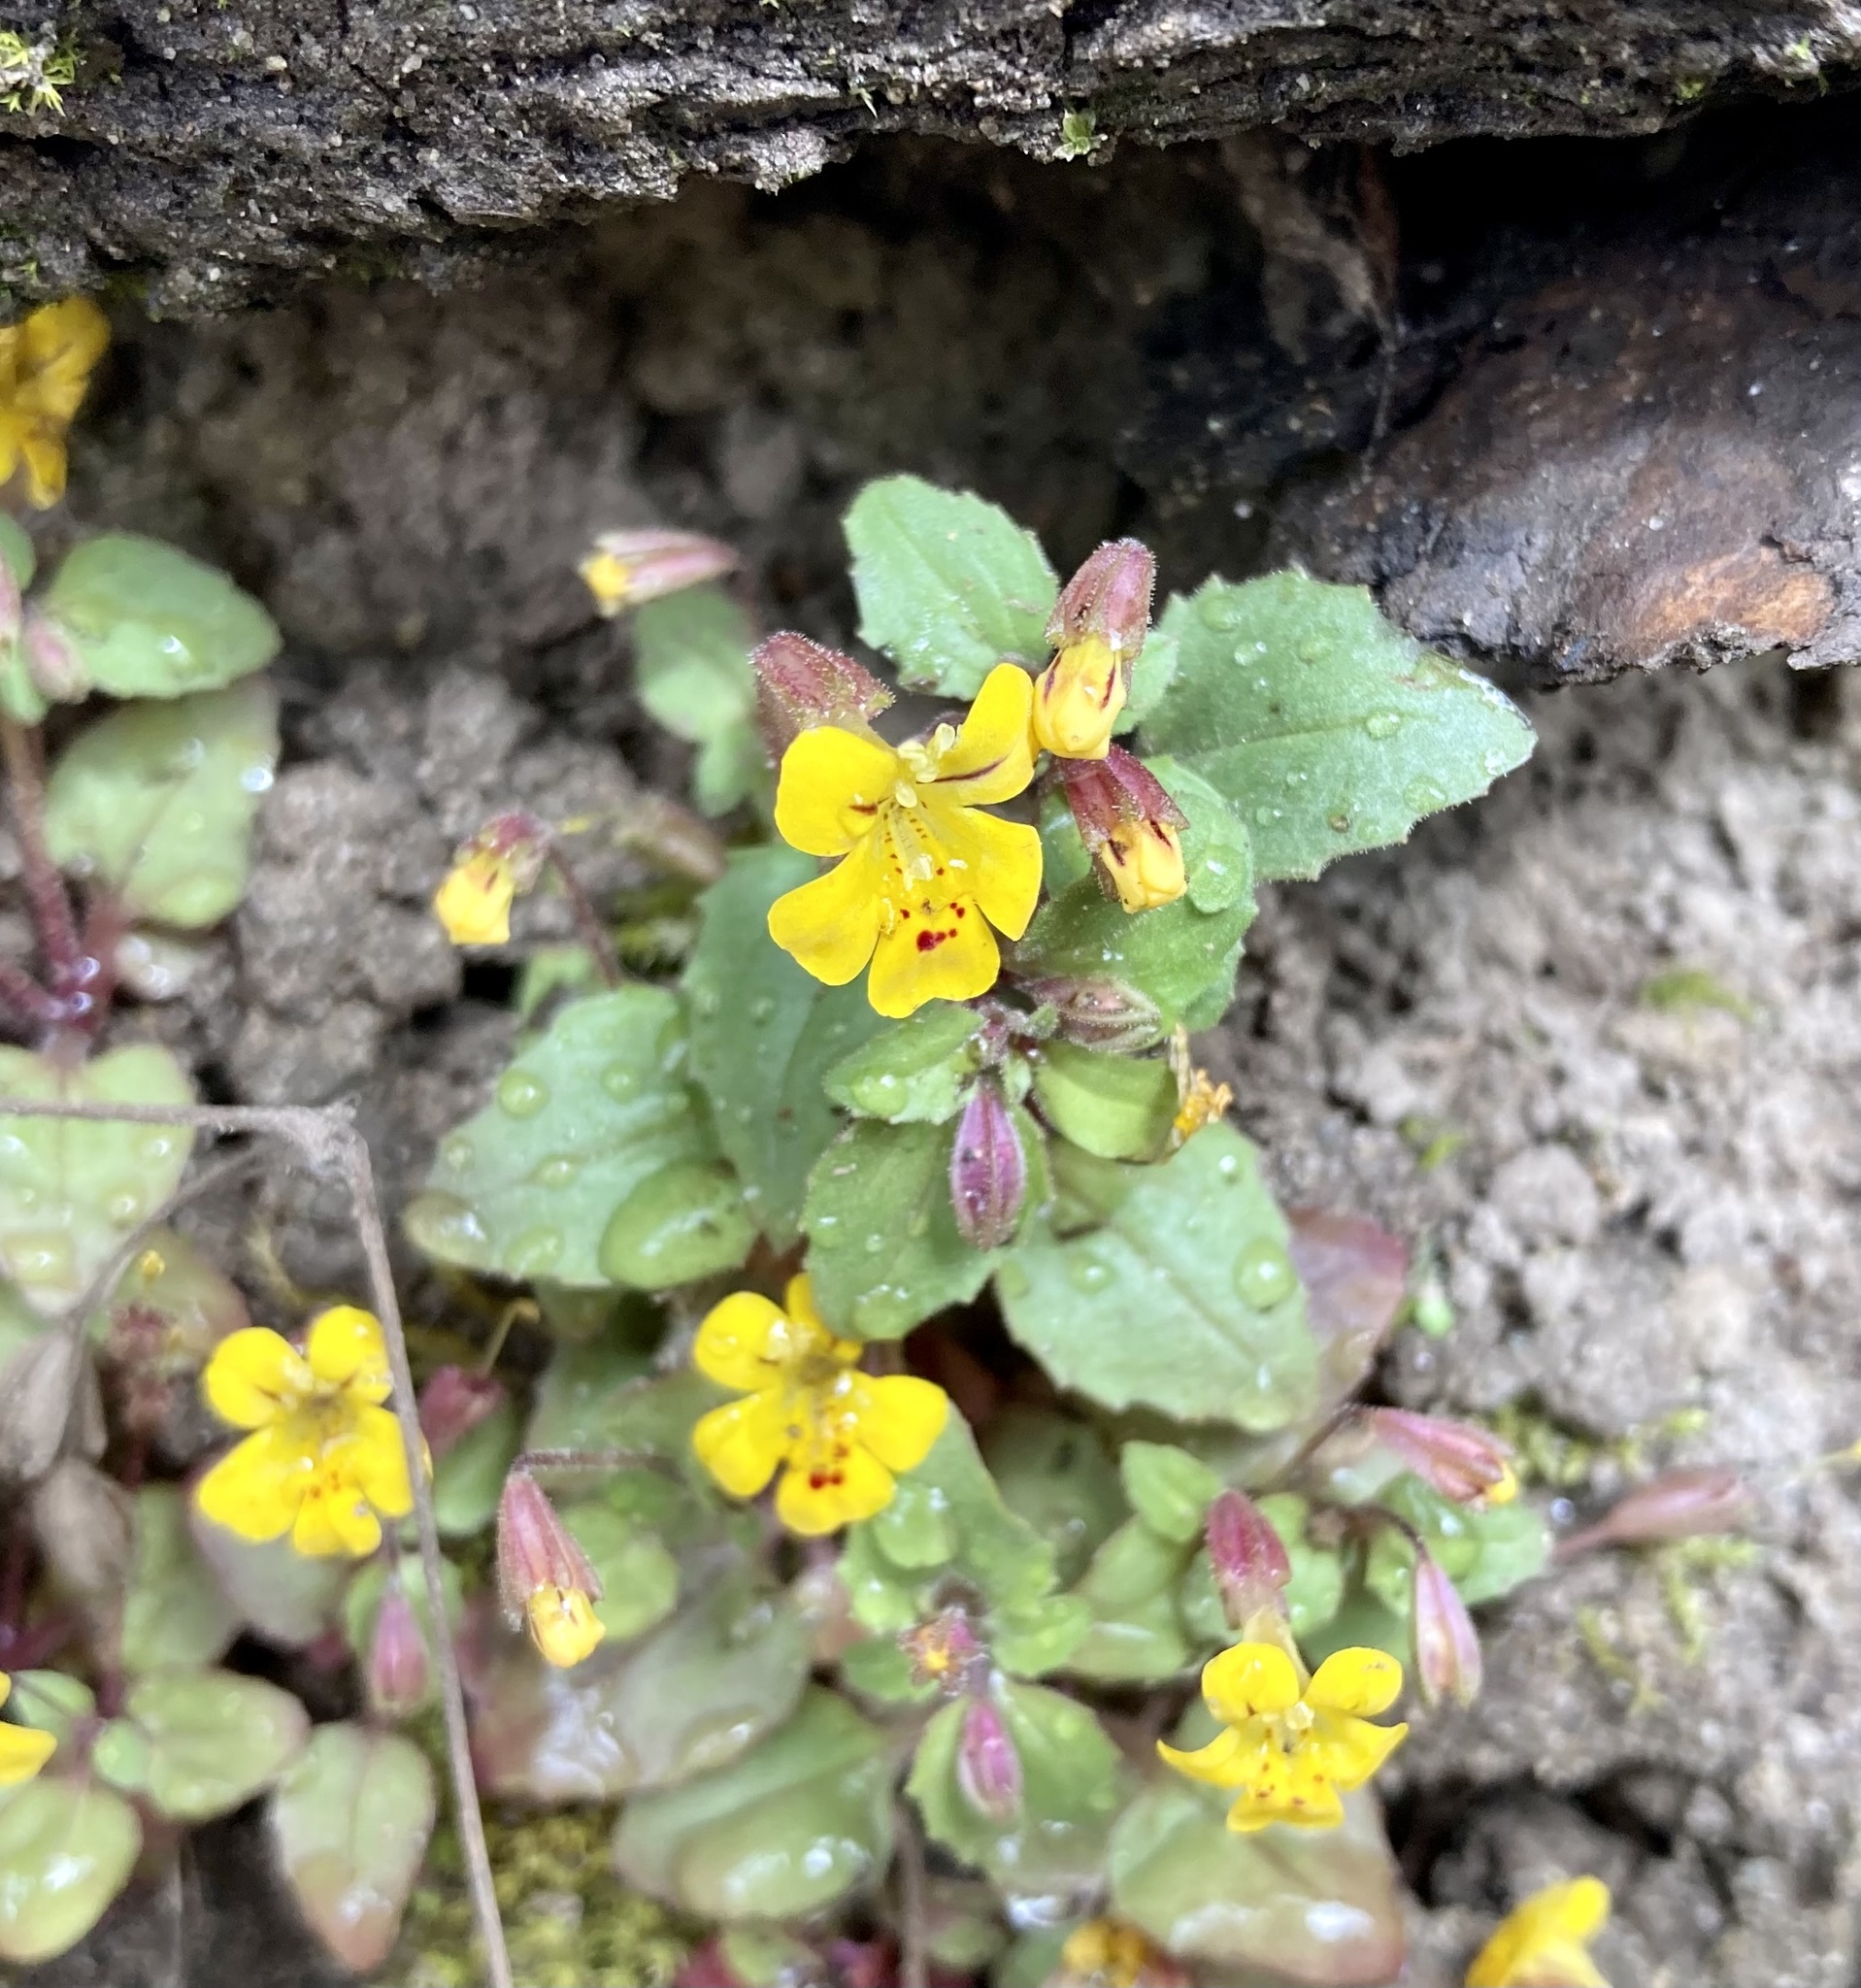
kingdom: Plantae
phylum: Tracheophyta
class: Magnoliopsida
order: Lamiales
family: Phrymaceae
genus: Erythranthe
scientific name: Erythranthe alsinoides
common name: Chickweed monkeyflower
